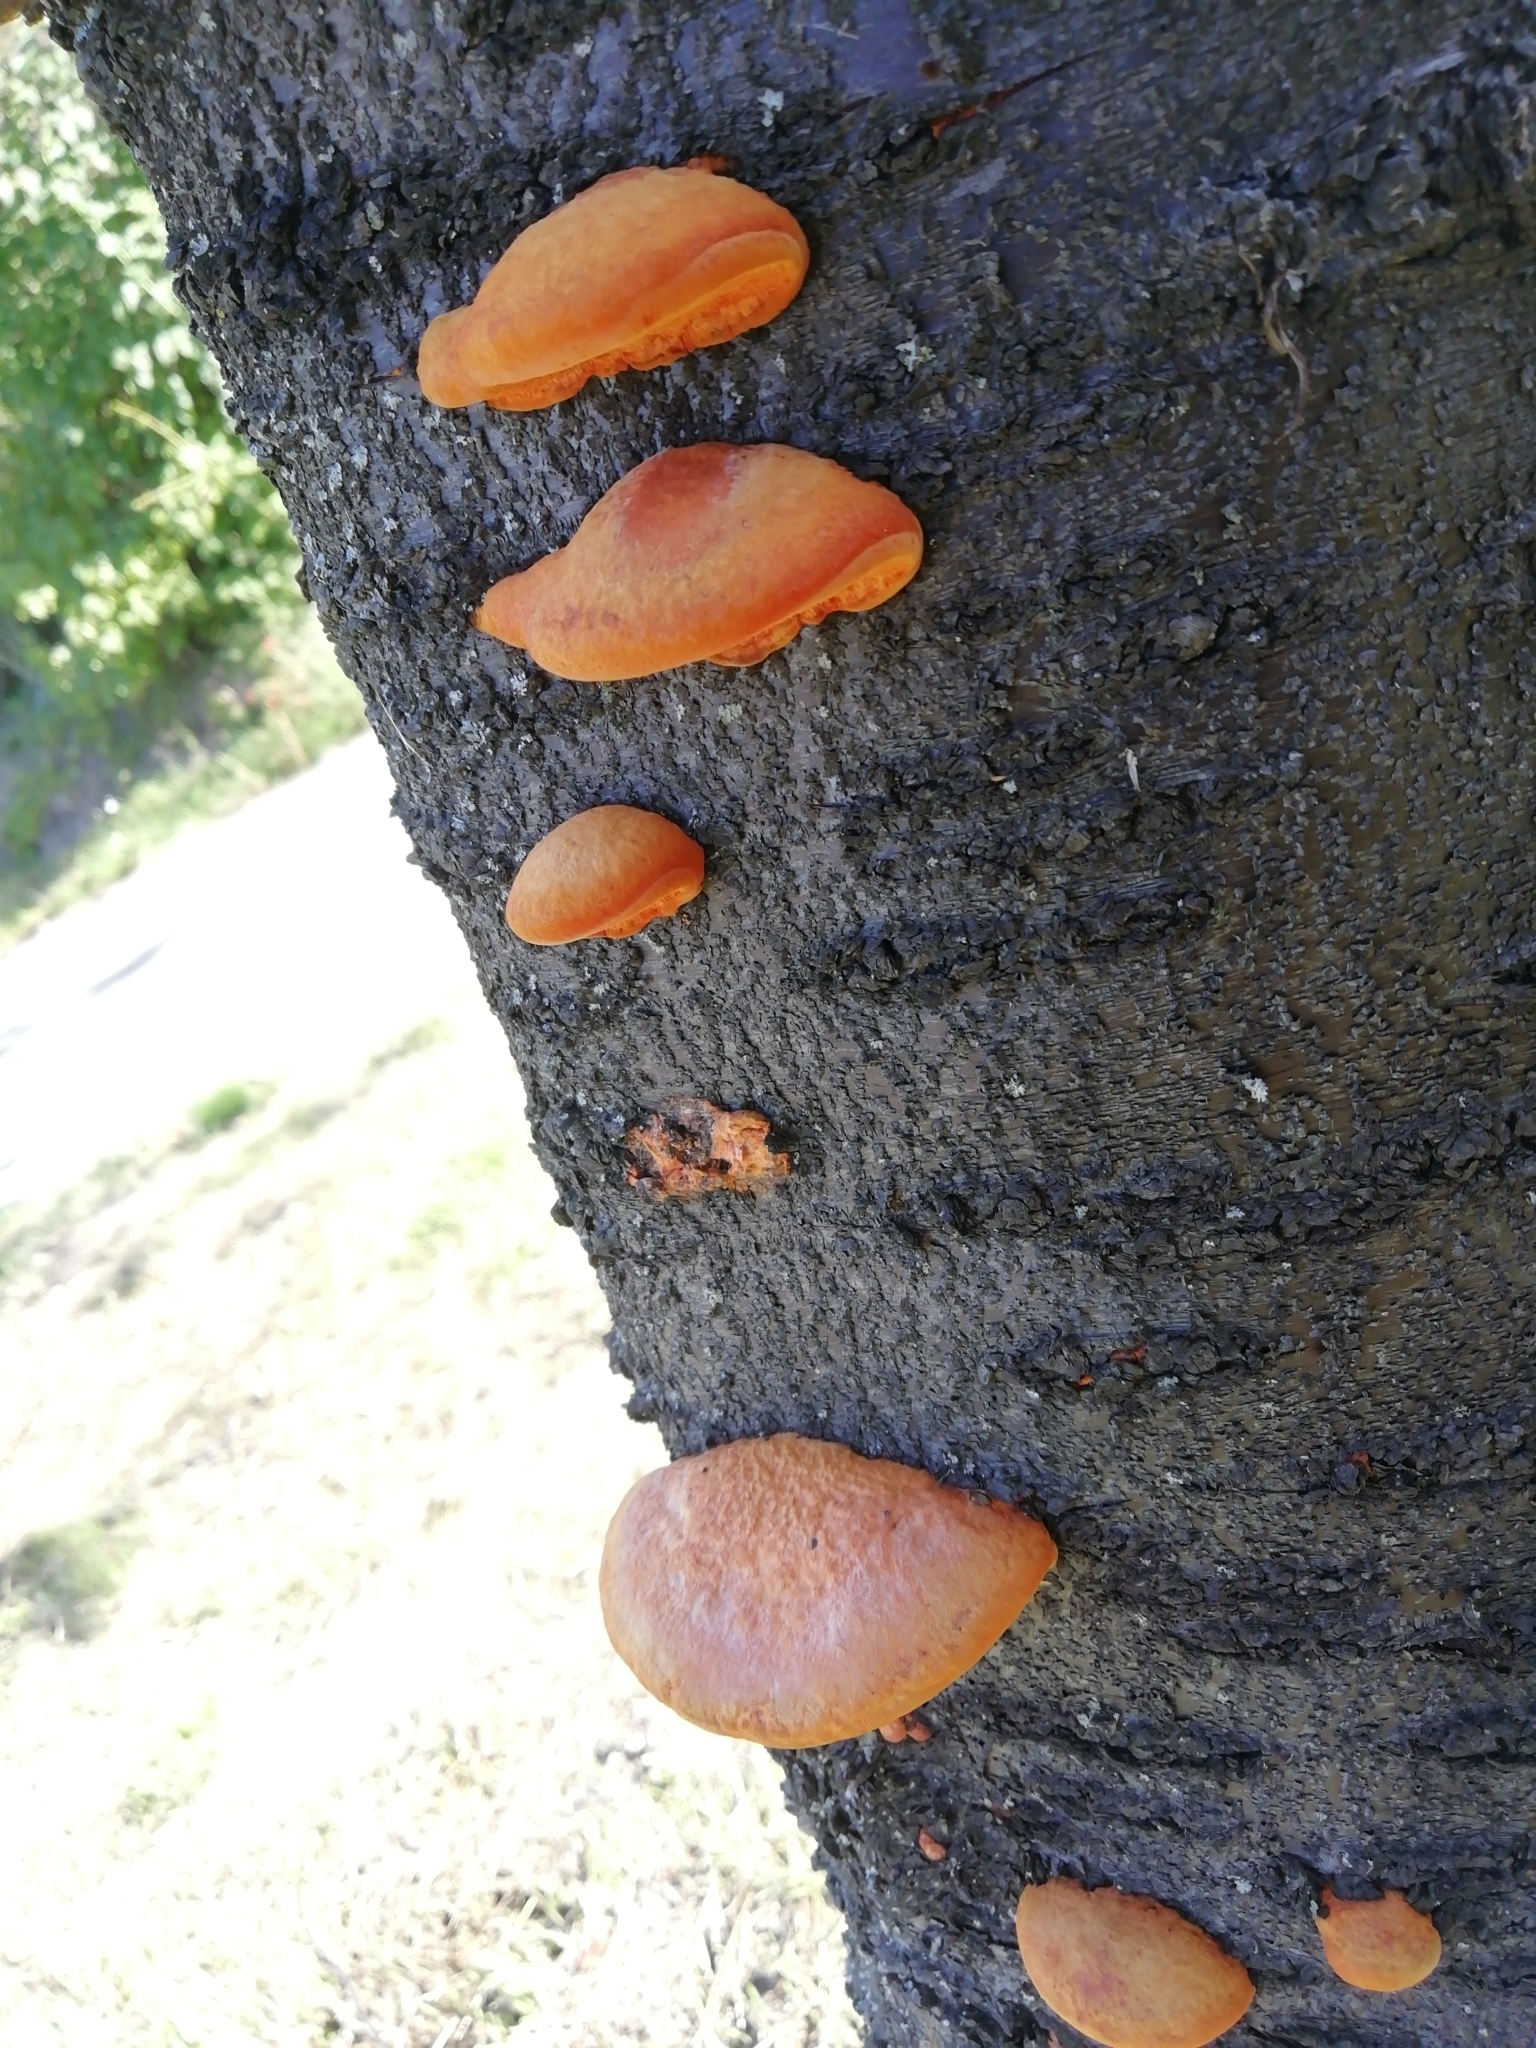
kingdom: Fungi
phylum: Basidiomycota
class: Agaricomycetes
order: Polyporales
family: Polyporaceae
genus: Trametes
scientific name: Trametes cinnabarina
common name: Northern cinnabar polypore
